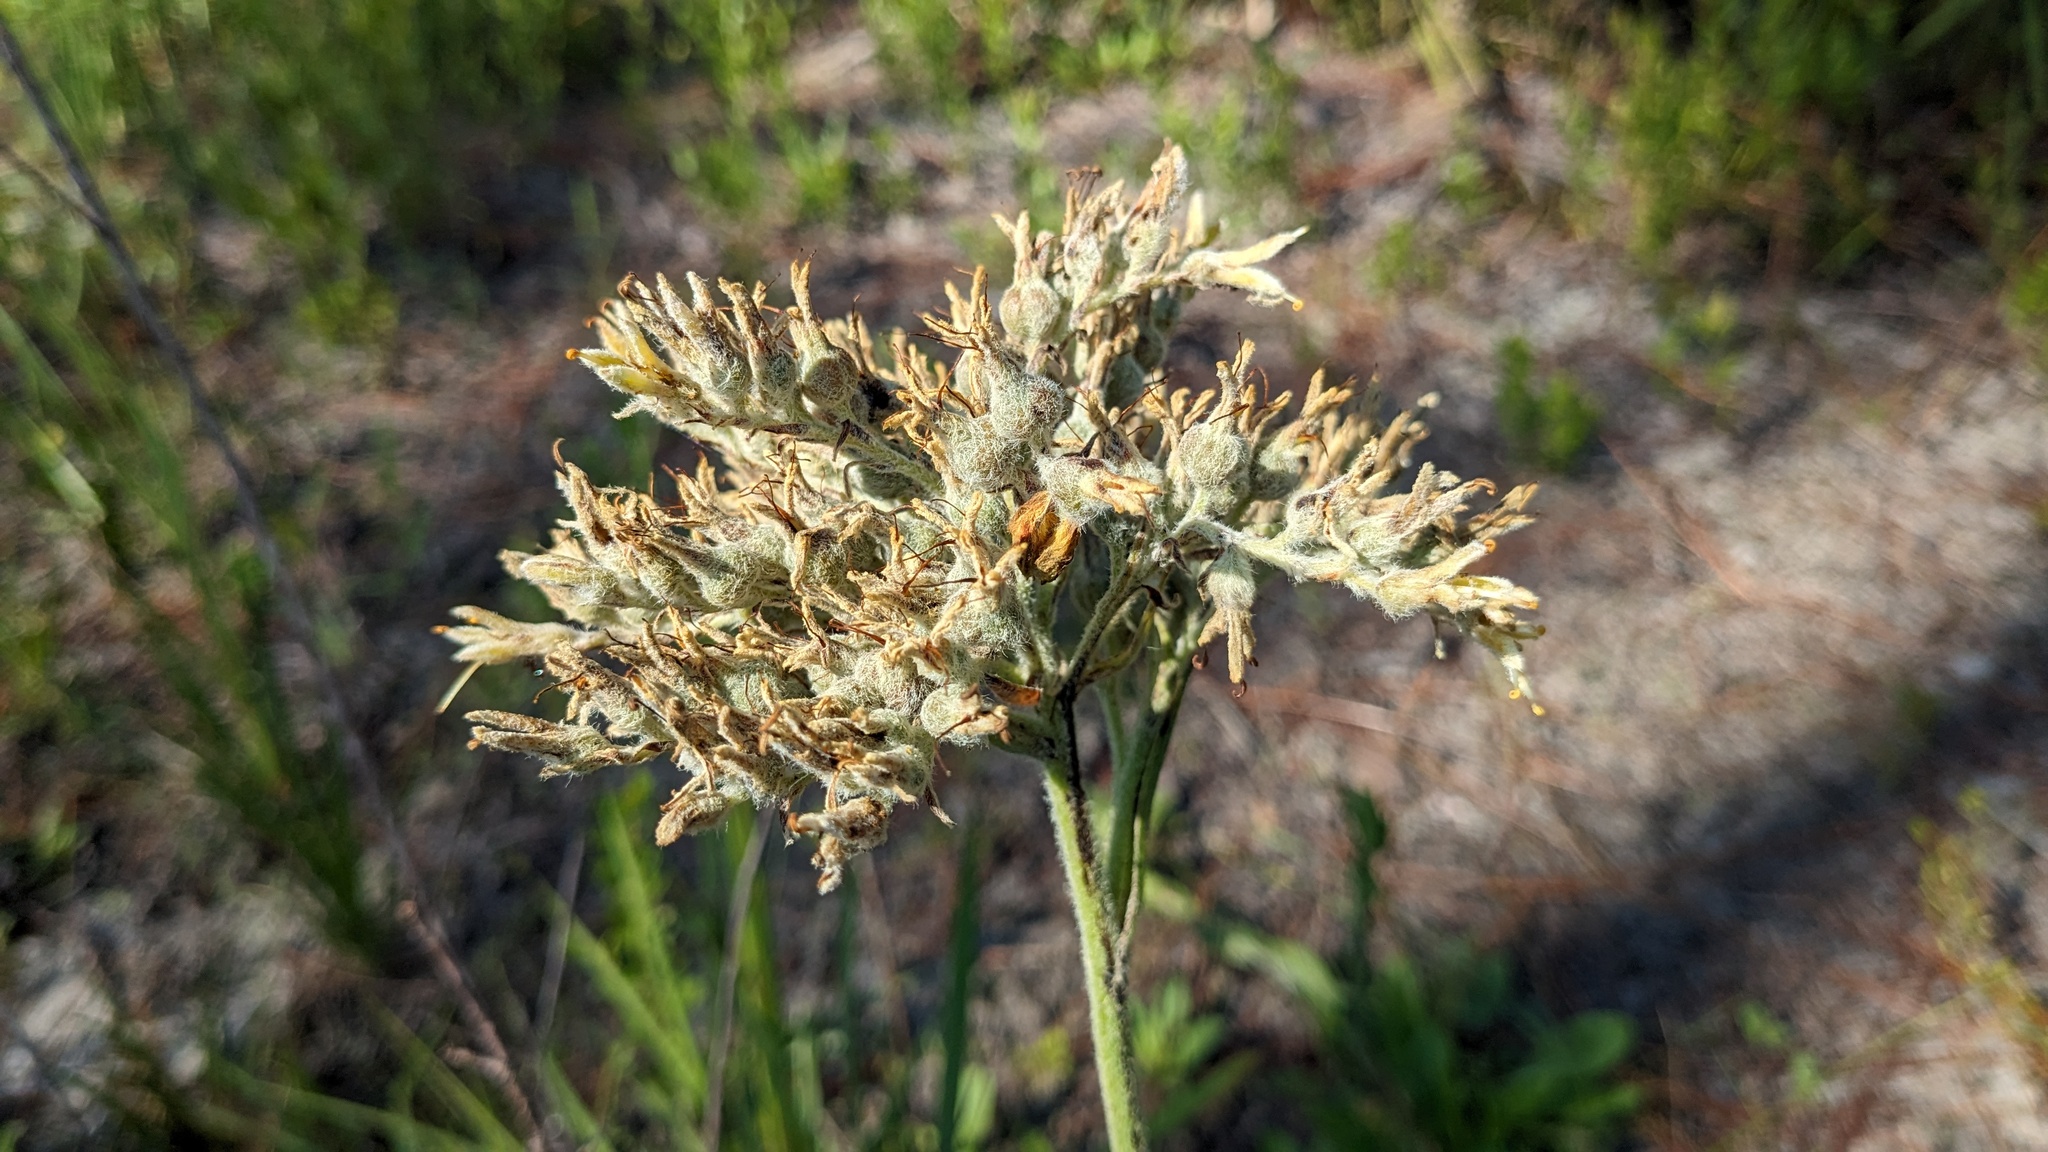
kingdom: Plantae
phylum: Tracheophyta
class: Liliopsida
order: Commelinales
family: Haemodoraceae
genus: Lachnanthes
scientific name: Lachnanthes caroliana
